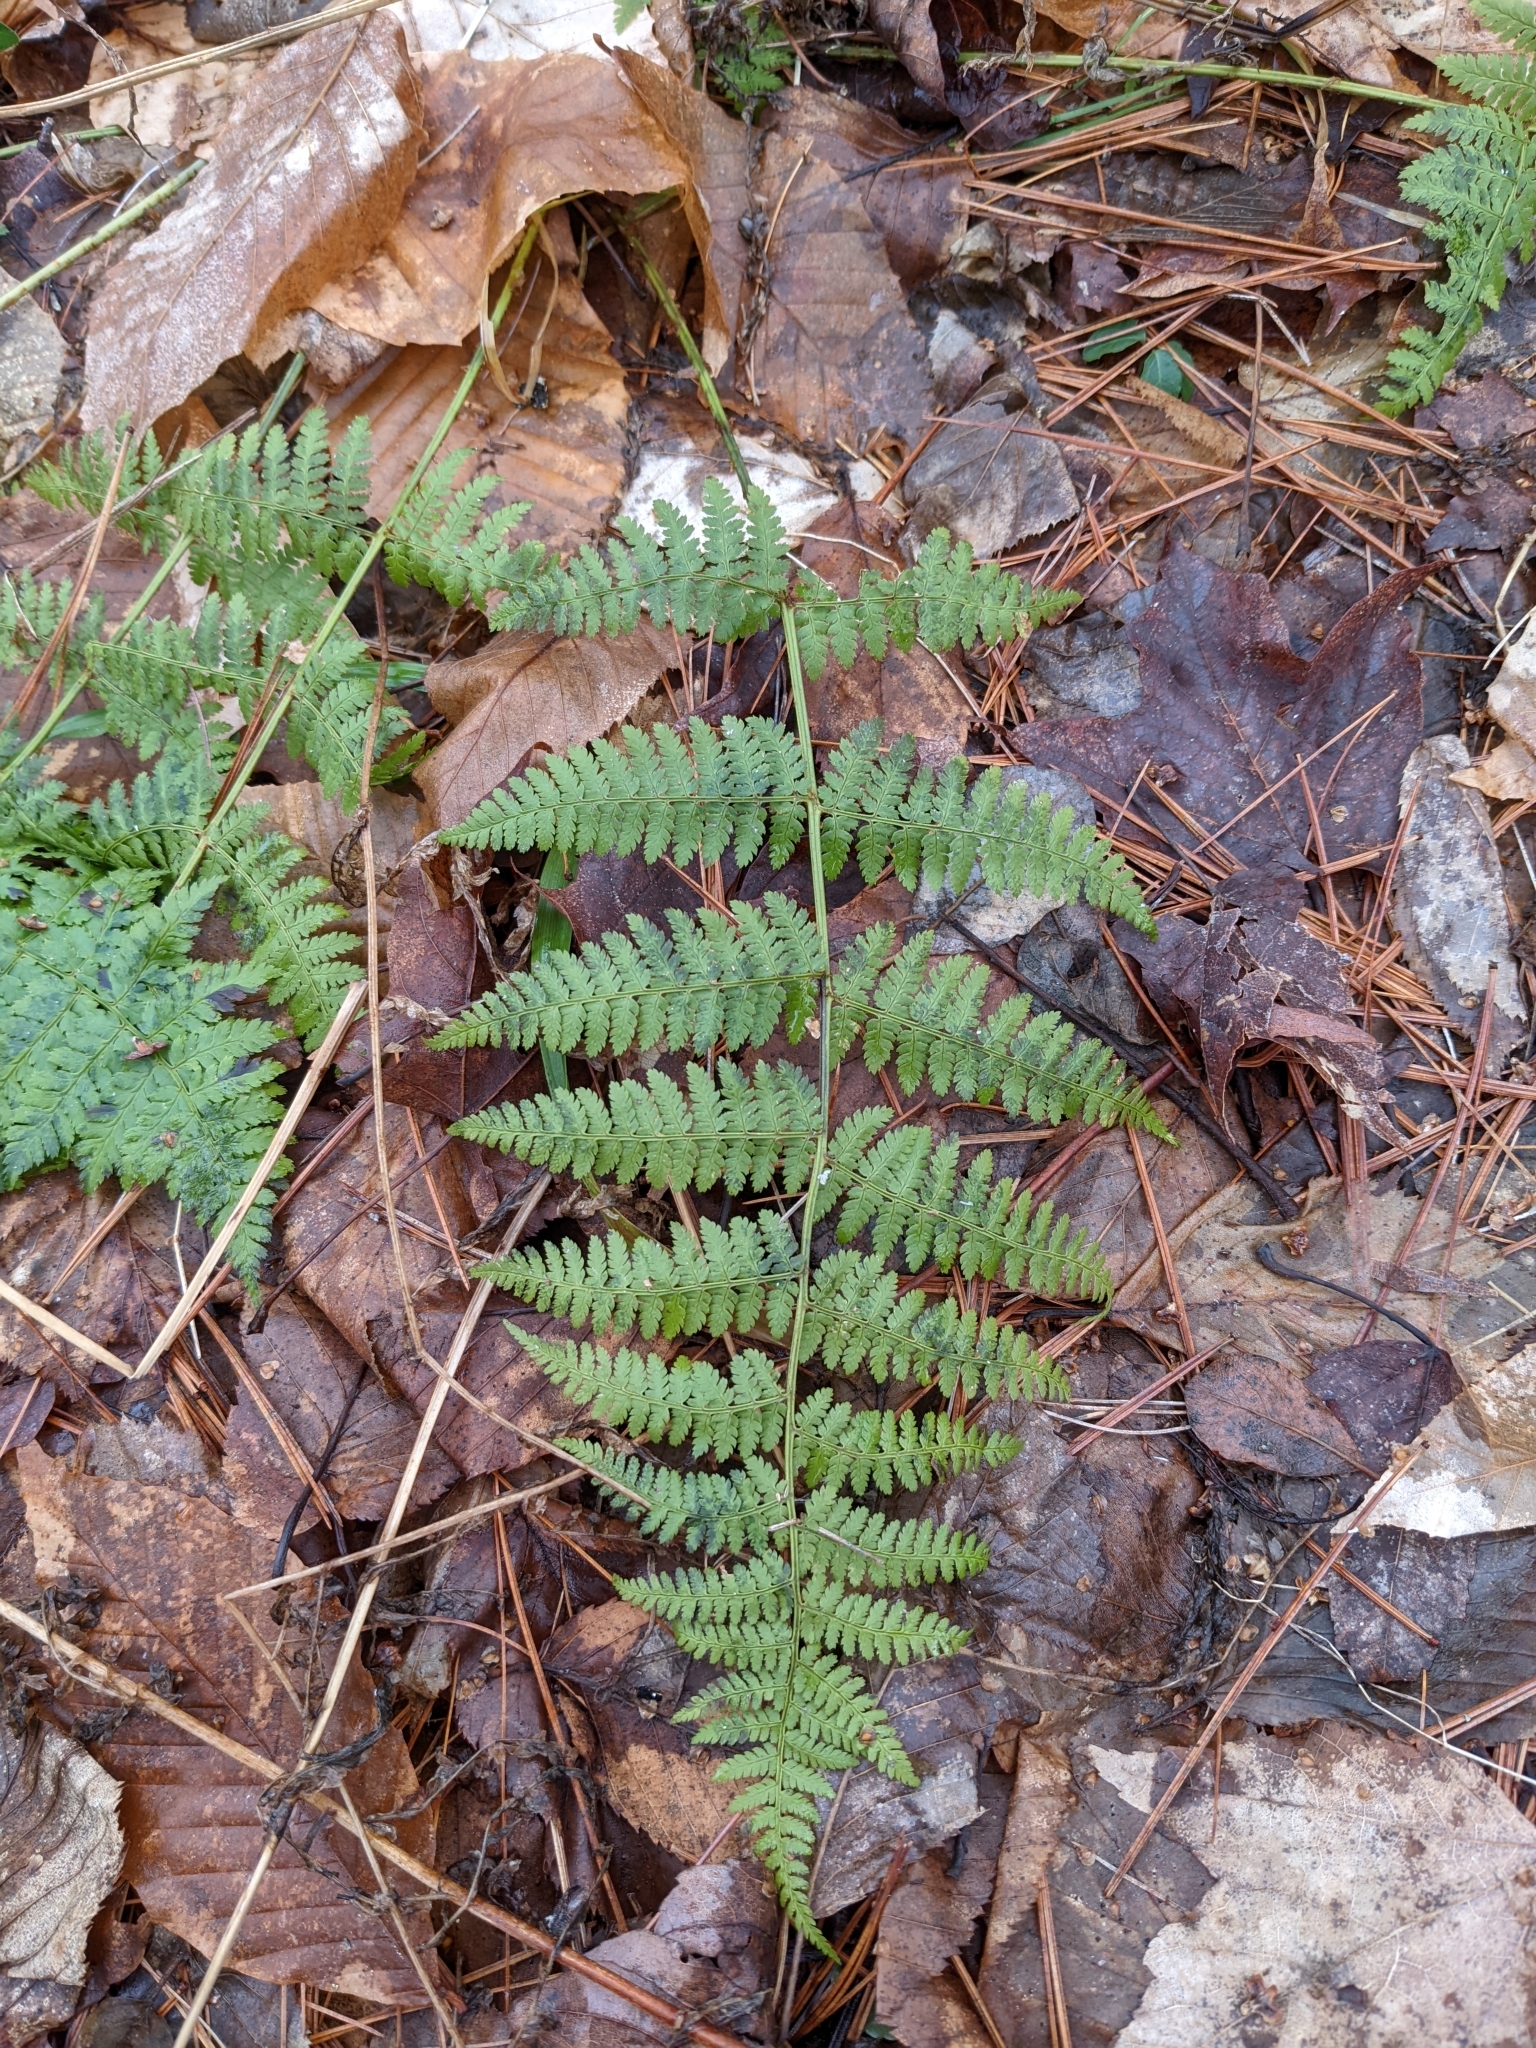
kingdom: Plantae
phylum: Tracheophyta
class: Polypodiopsida
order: Polypodiales
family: Dryopteridaceae
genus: Dryopteris
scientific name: Dryopteris intermedia
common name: Evergreen wood fern
